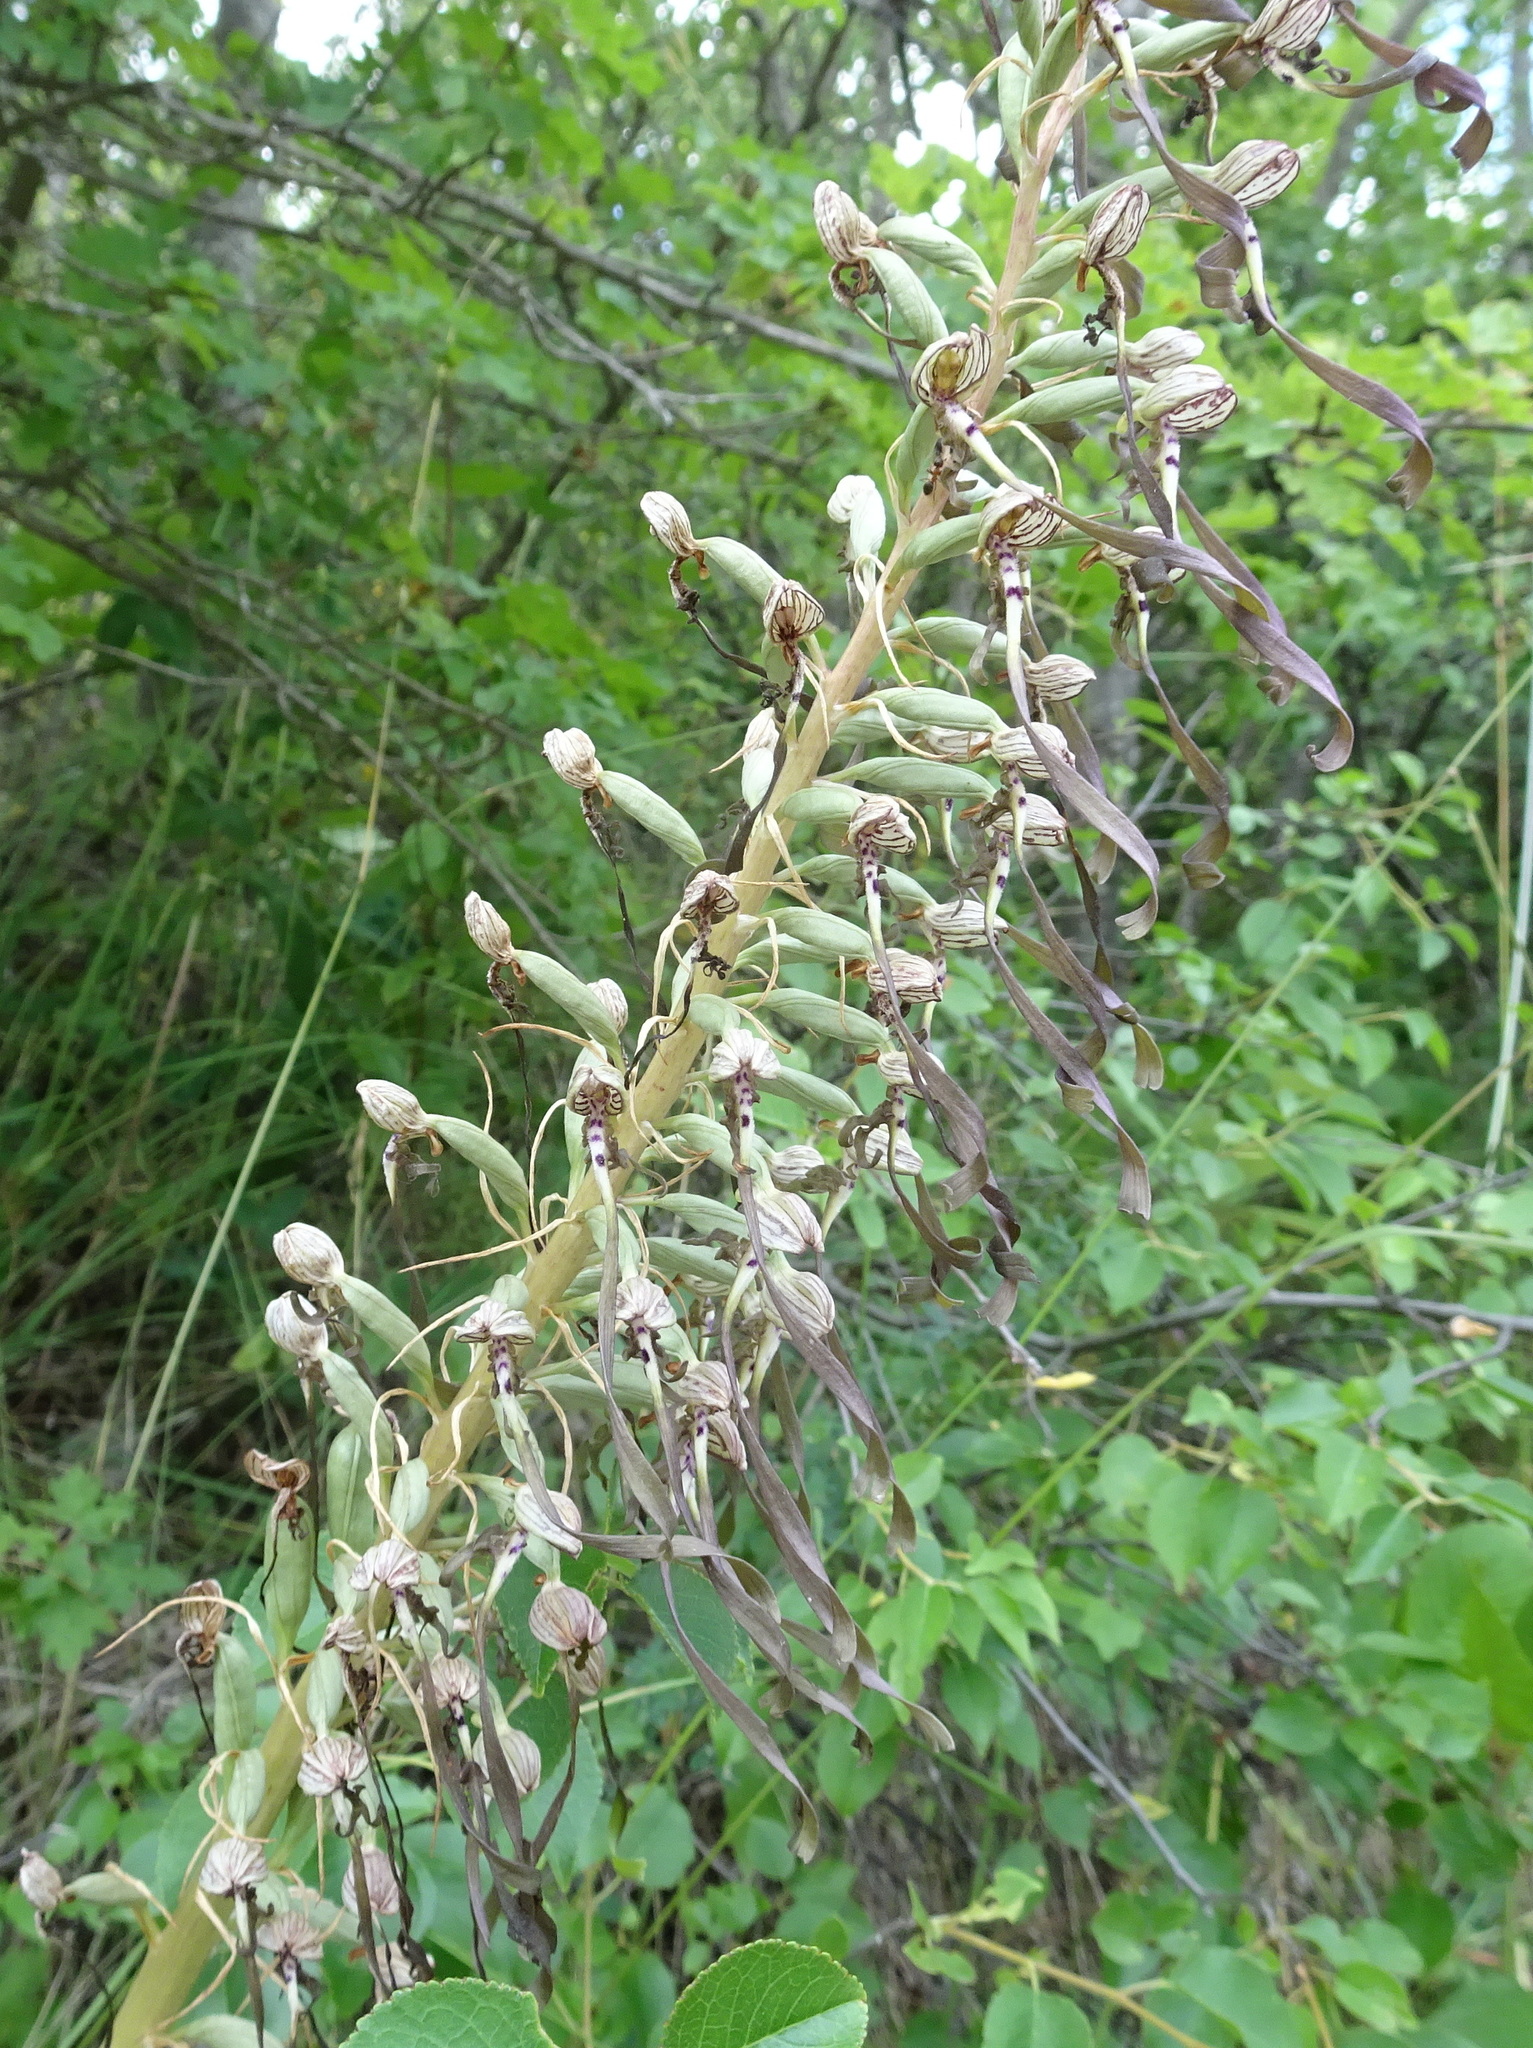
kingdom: Plantae
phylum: Tracheophyta
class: Liliopsida
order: Asparagales
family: Orchidaceae
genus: Himantoglossum
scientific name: Himantoglossum hircinum
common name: Lizard orchid
